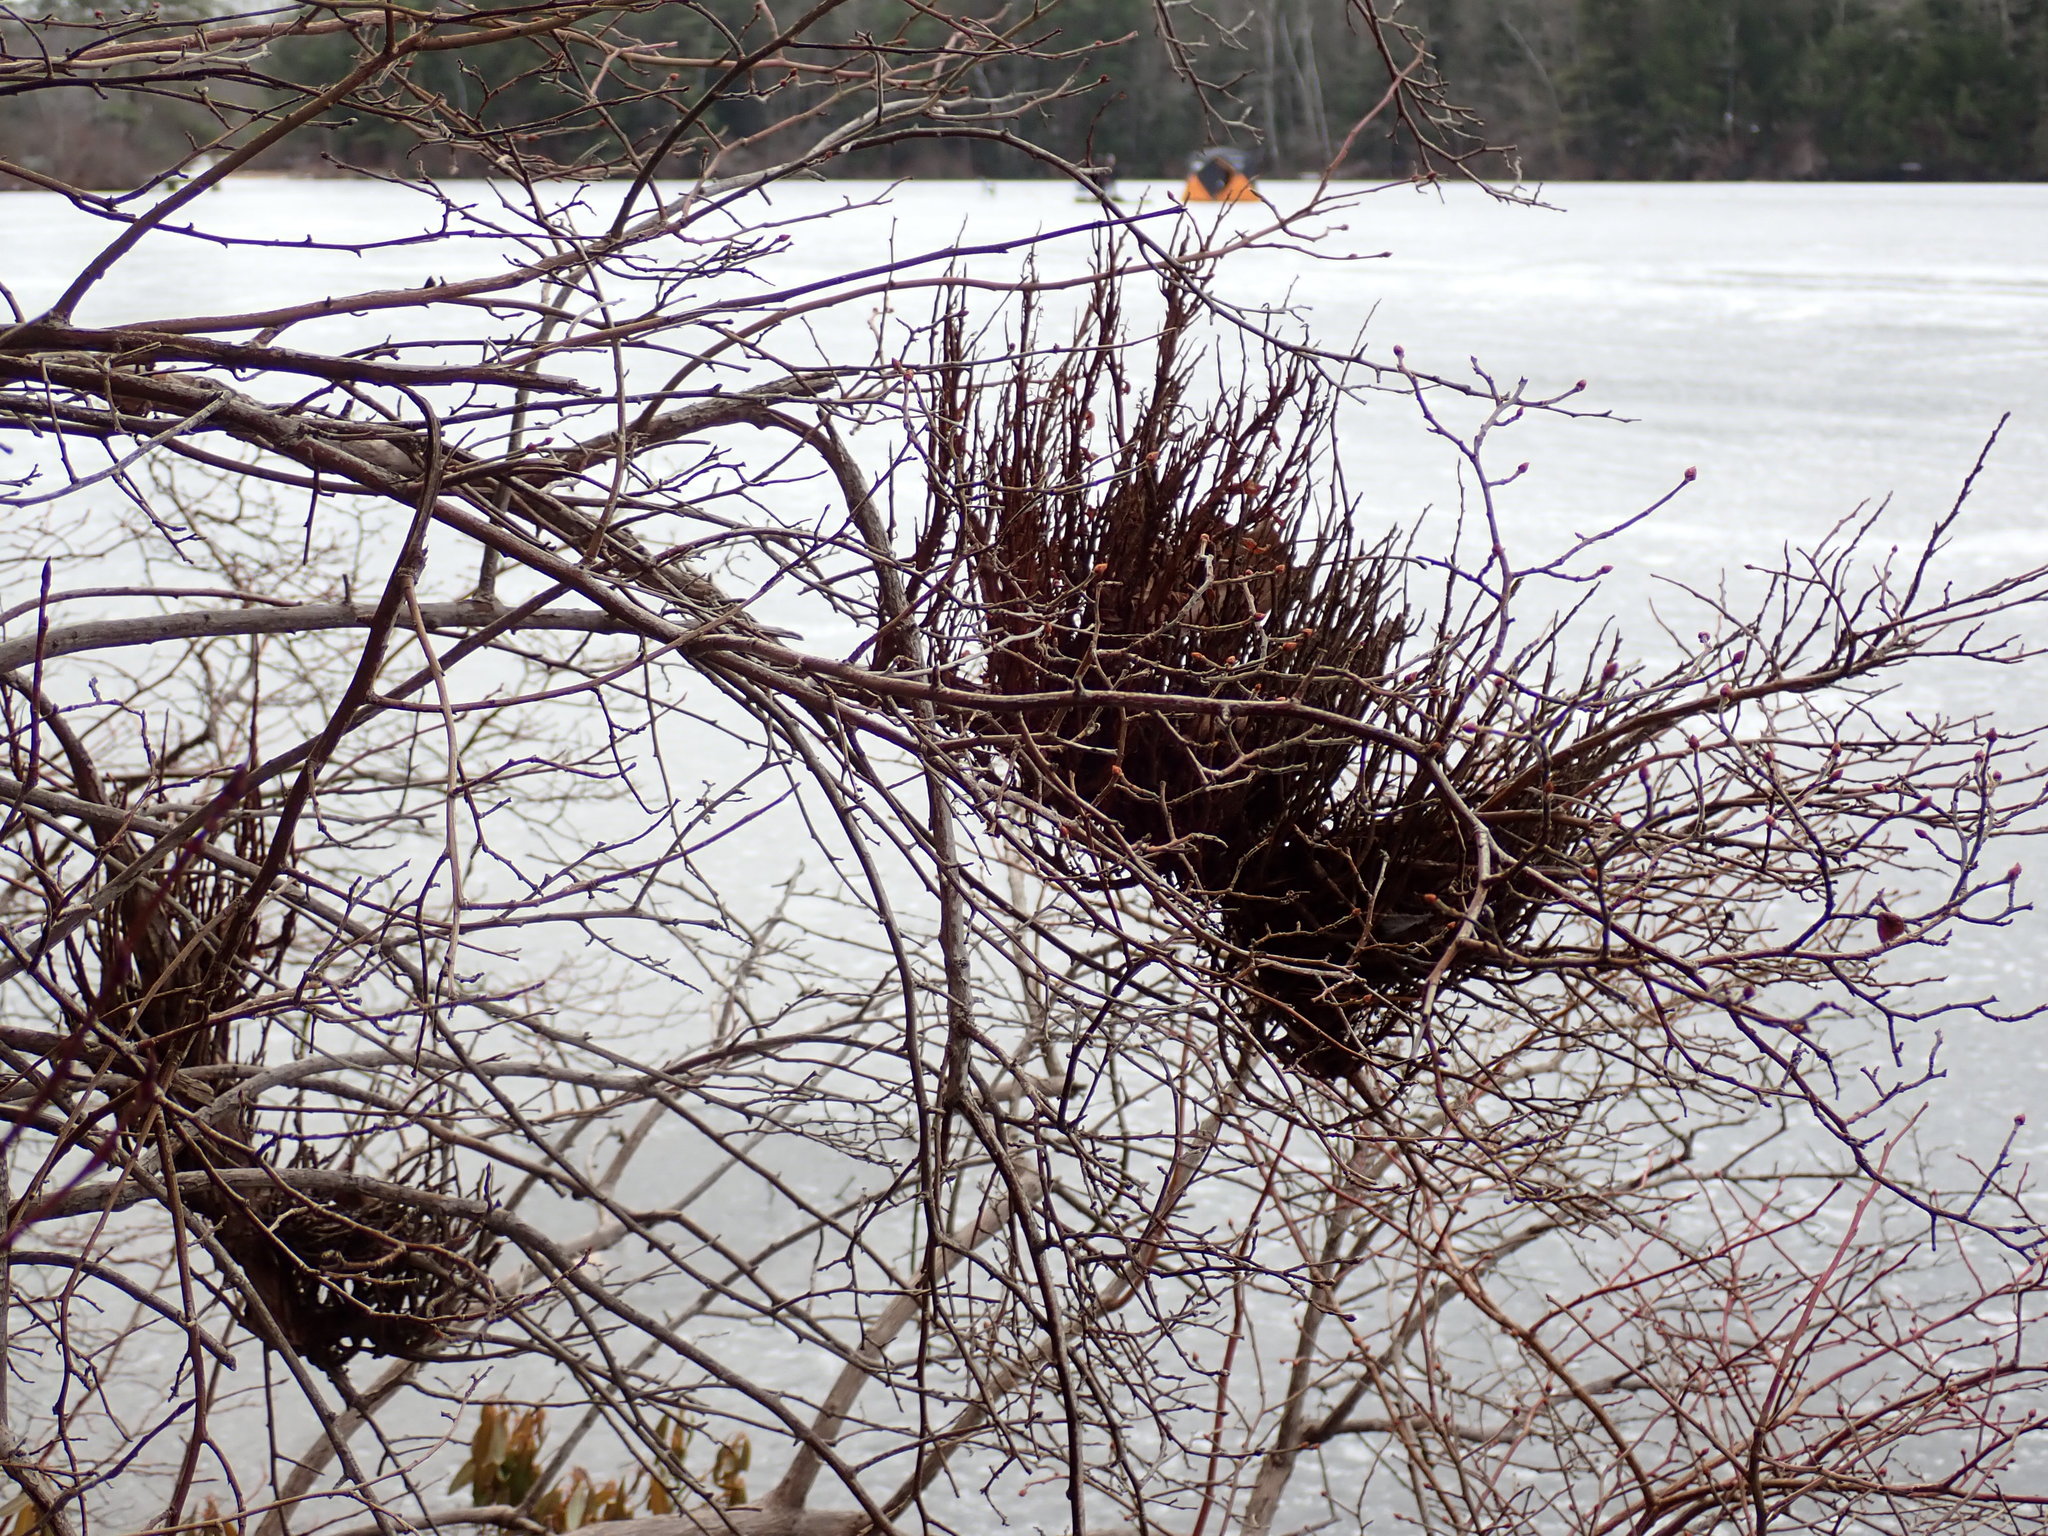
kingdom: Fungi
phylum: Basidiomycota
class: Pucciniomycetes
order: Pucciniales
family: Pucciniastraceae
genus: Calyptospora
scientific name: Calyptospora columnaris
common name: Huckleberry broom rust fungus
